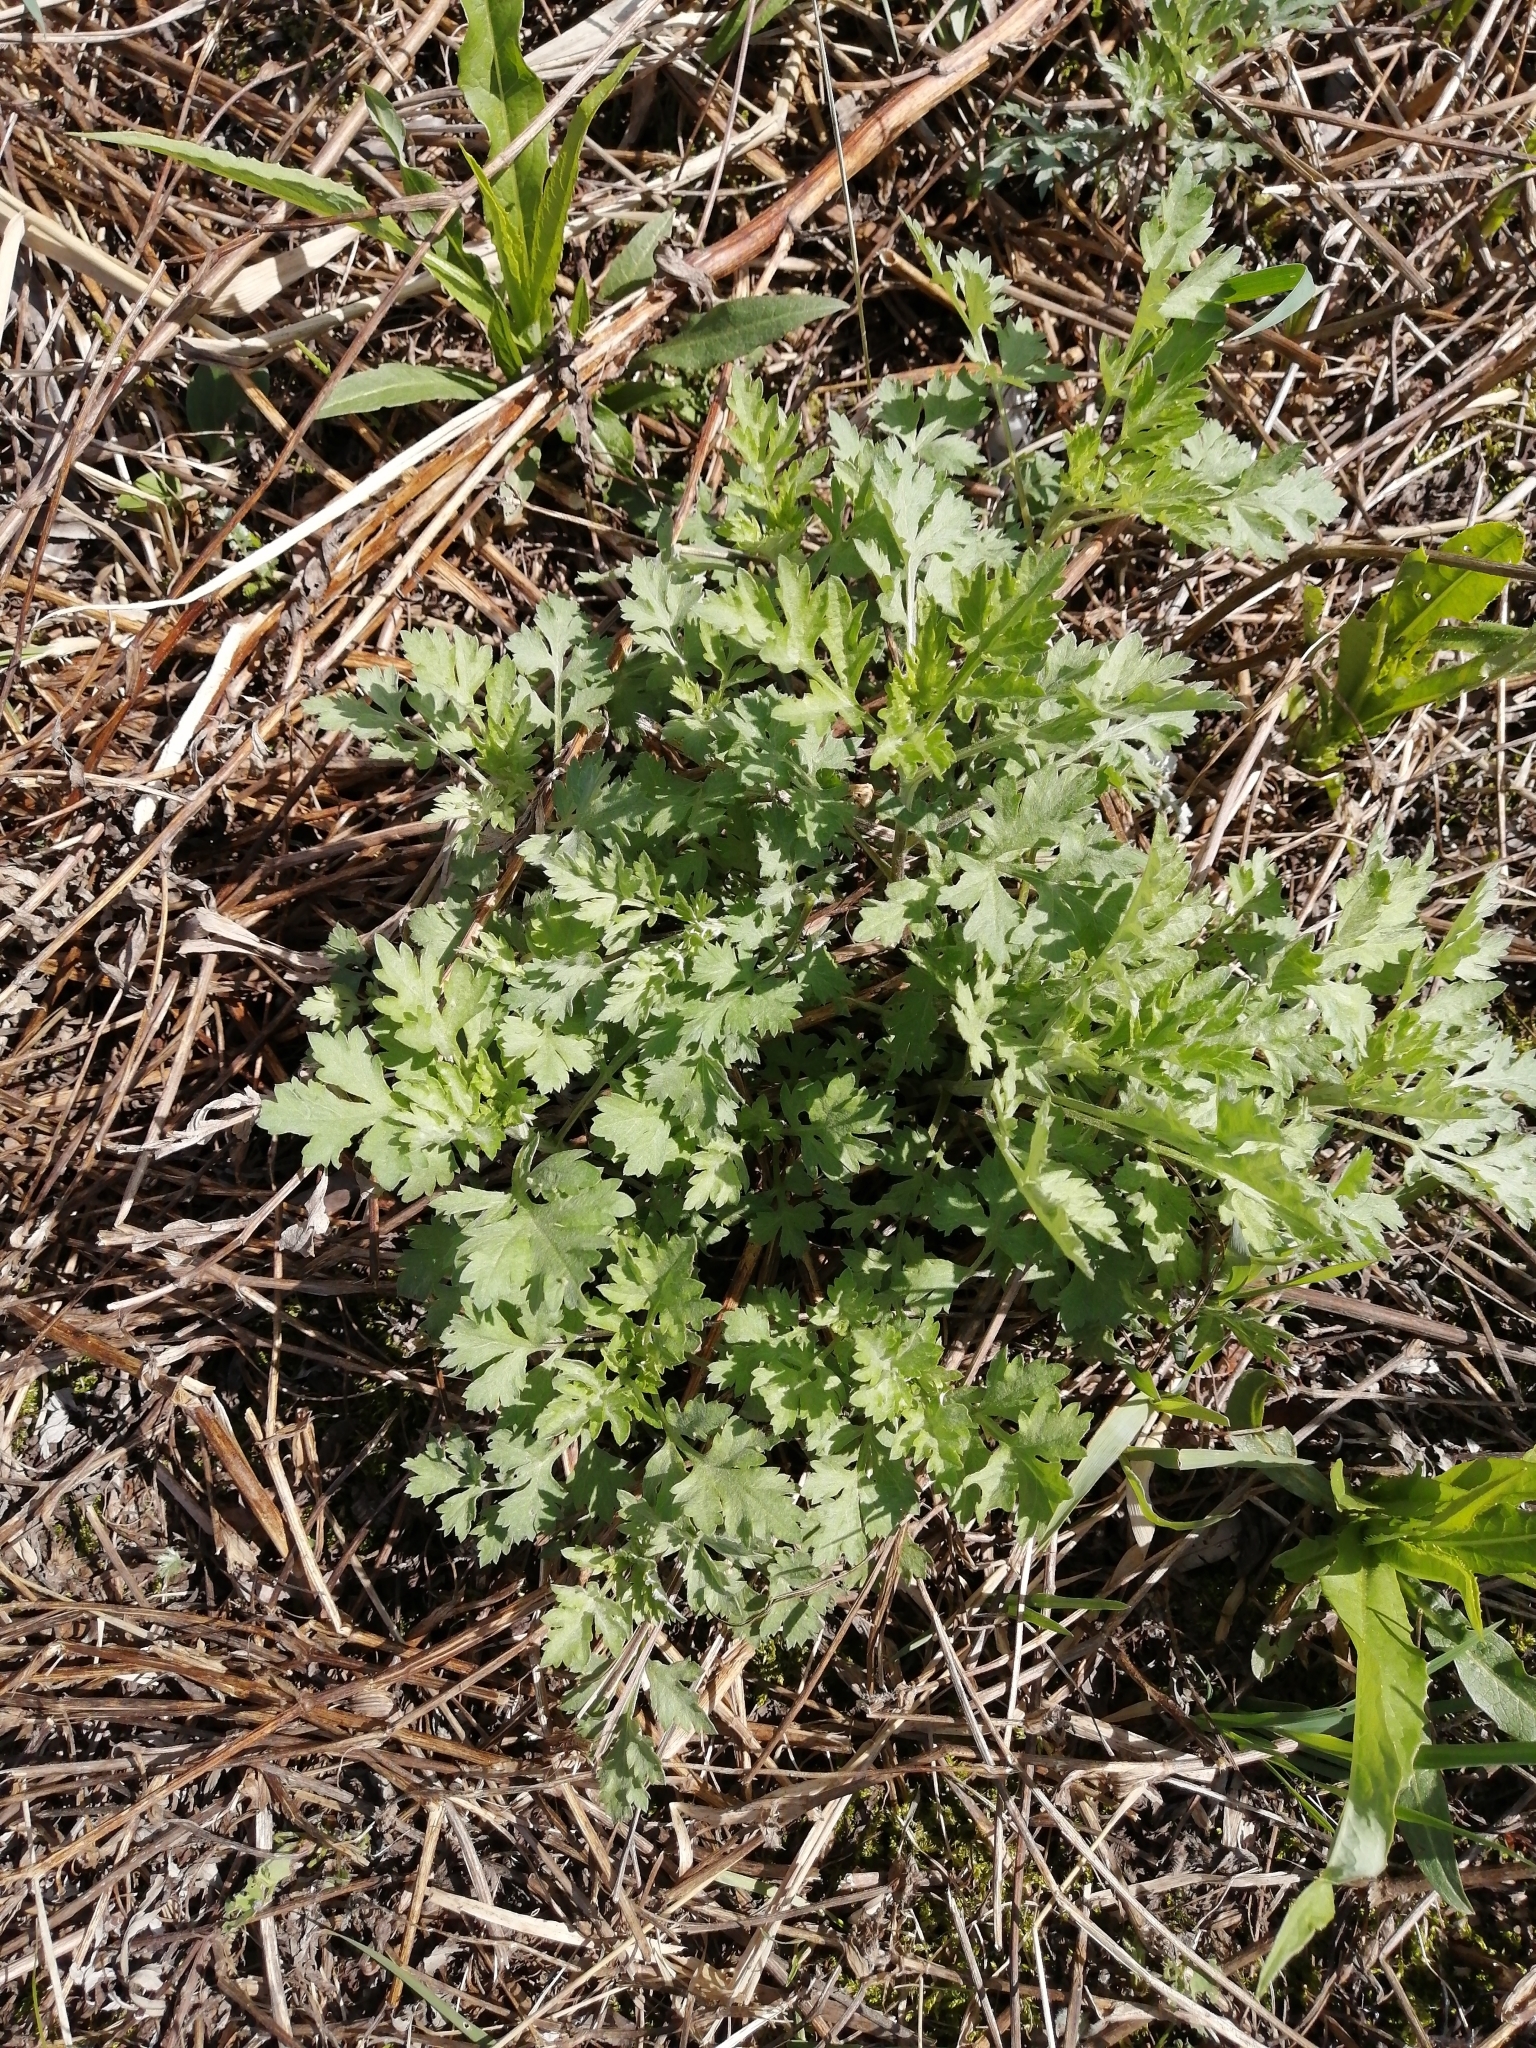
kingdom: Plantae
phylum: Tracheophyta
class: Magnoliopsida
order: Asterales
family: Asteraceae
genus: Artemisia
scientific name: Artemisia vulgaris
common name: Mugwort
